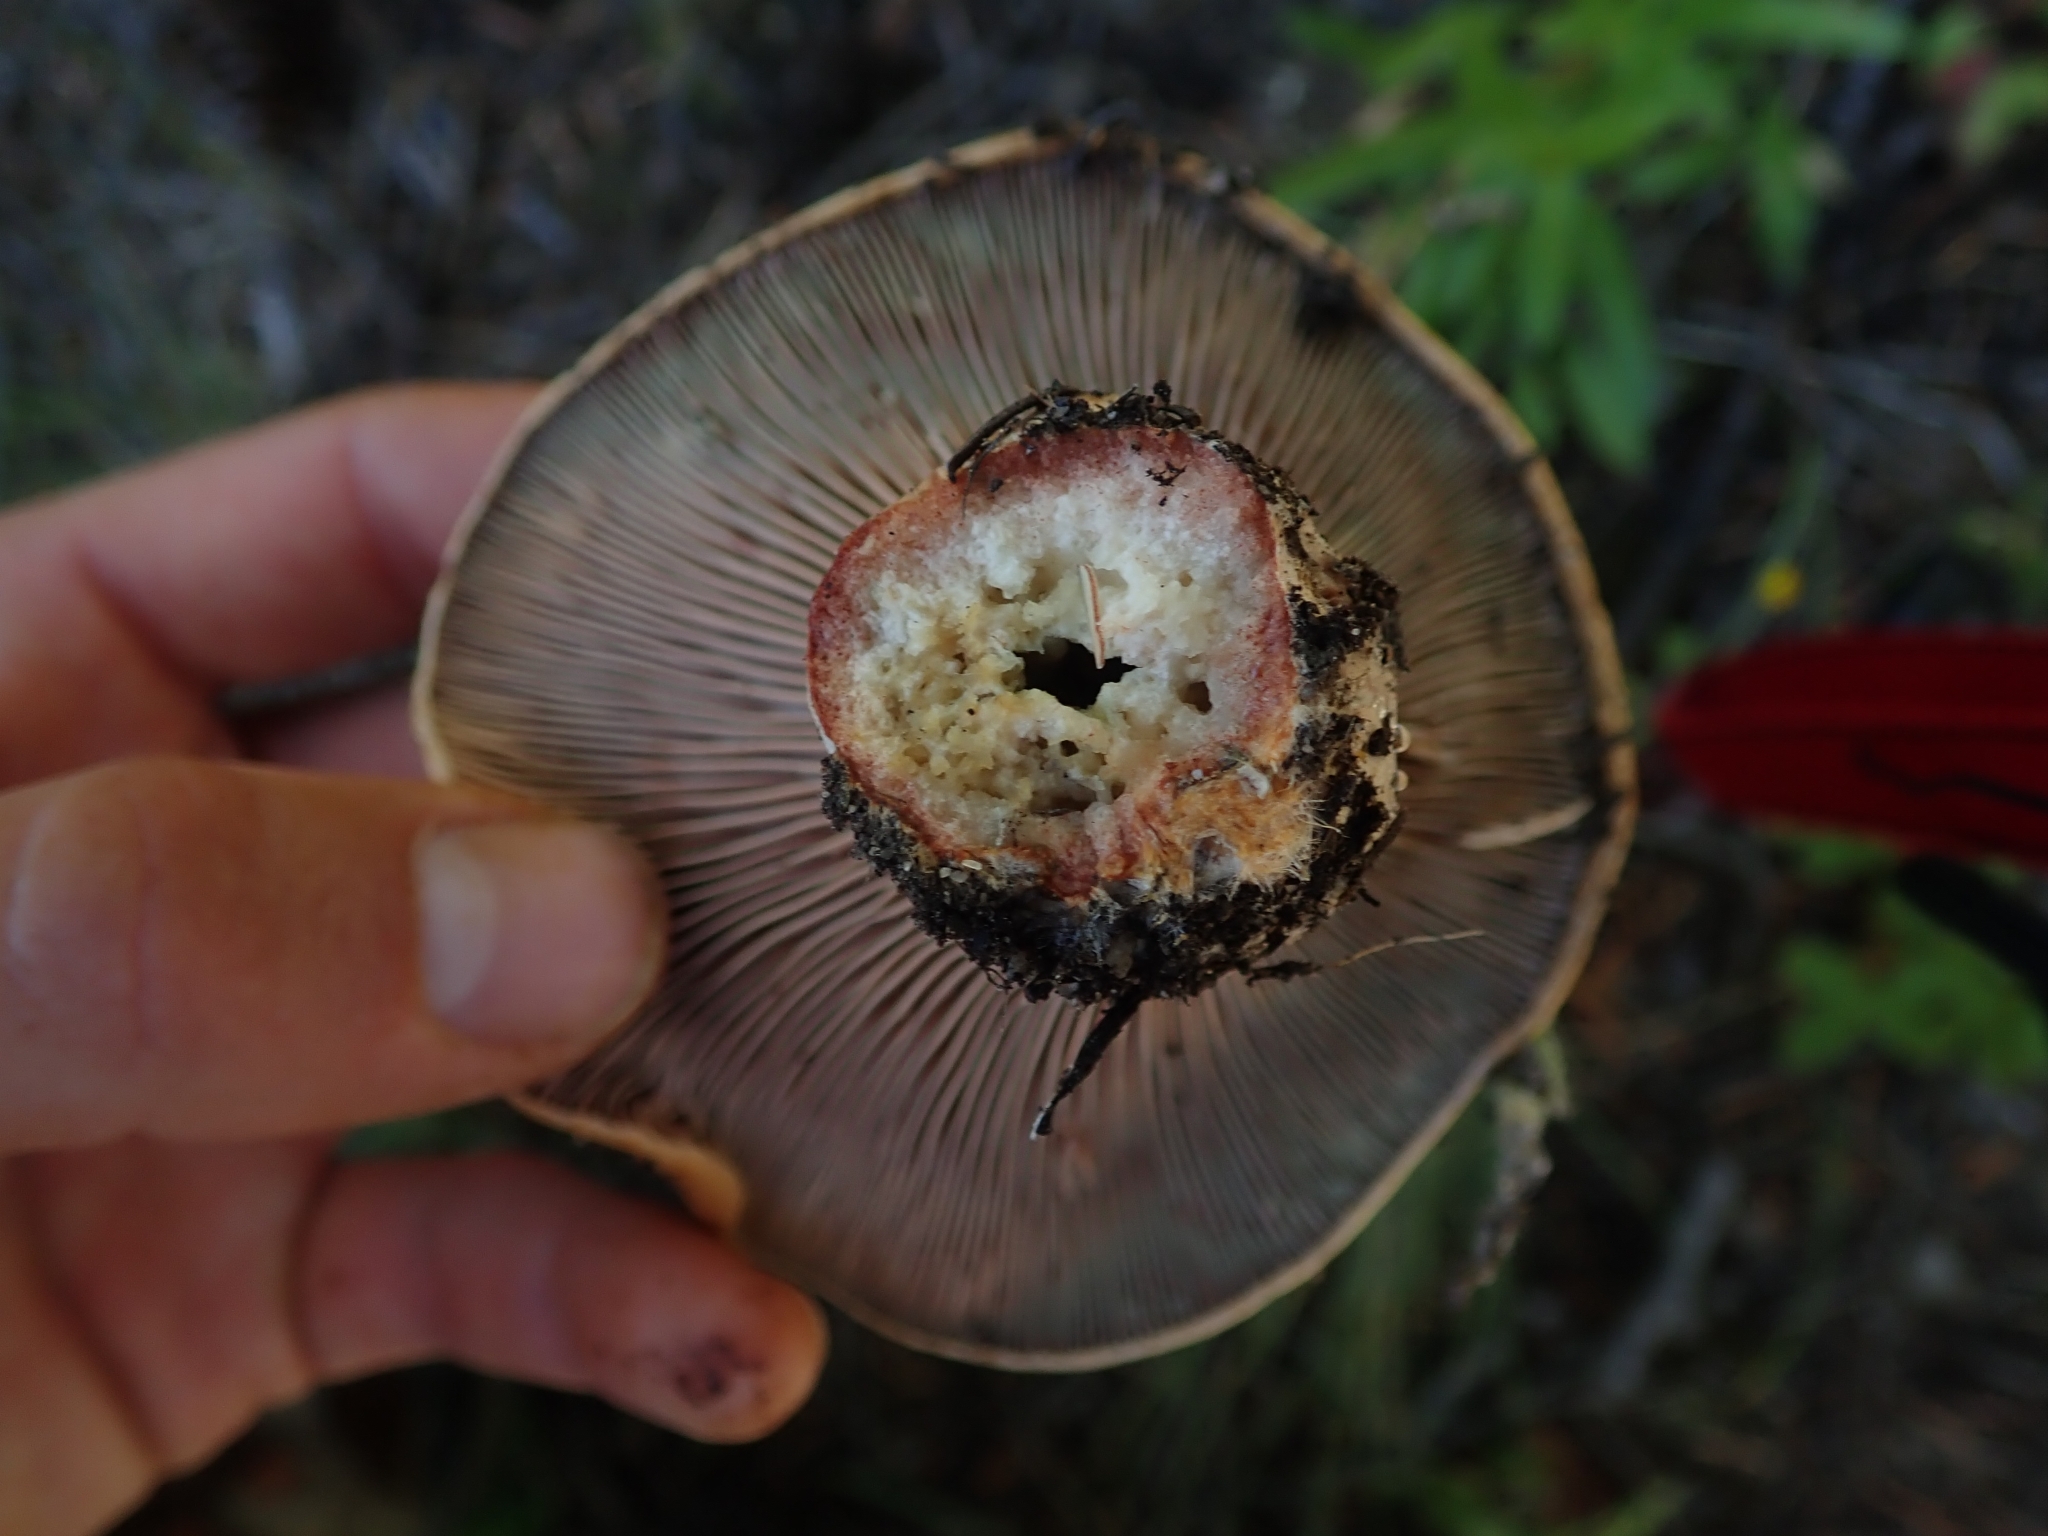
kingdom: Fungi
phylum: Basidiomycota
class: Agaricomycetes
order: Russulales
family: Russulaceae
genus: Lactarius
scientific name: Lactarius rubrilacteus
